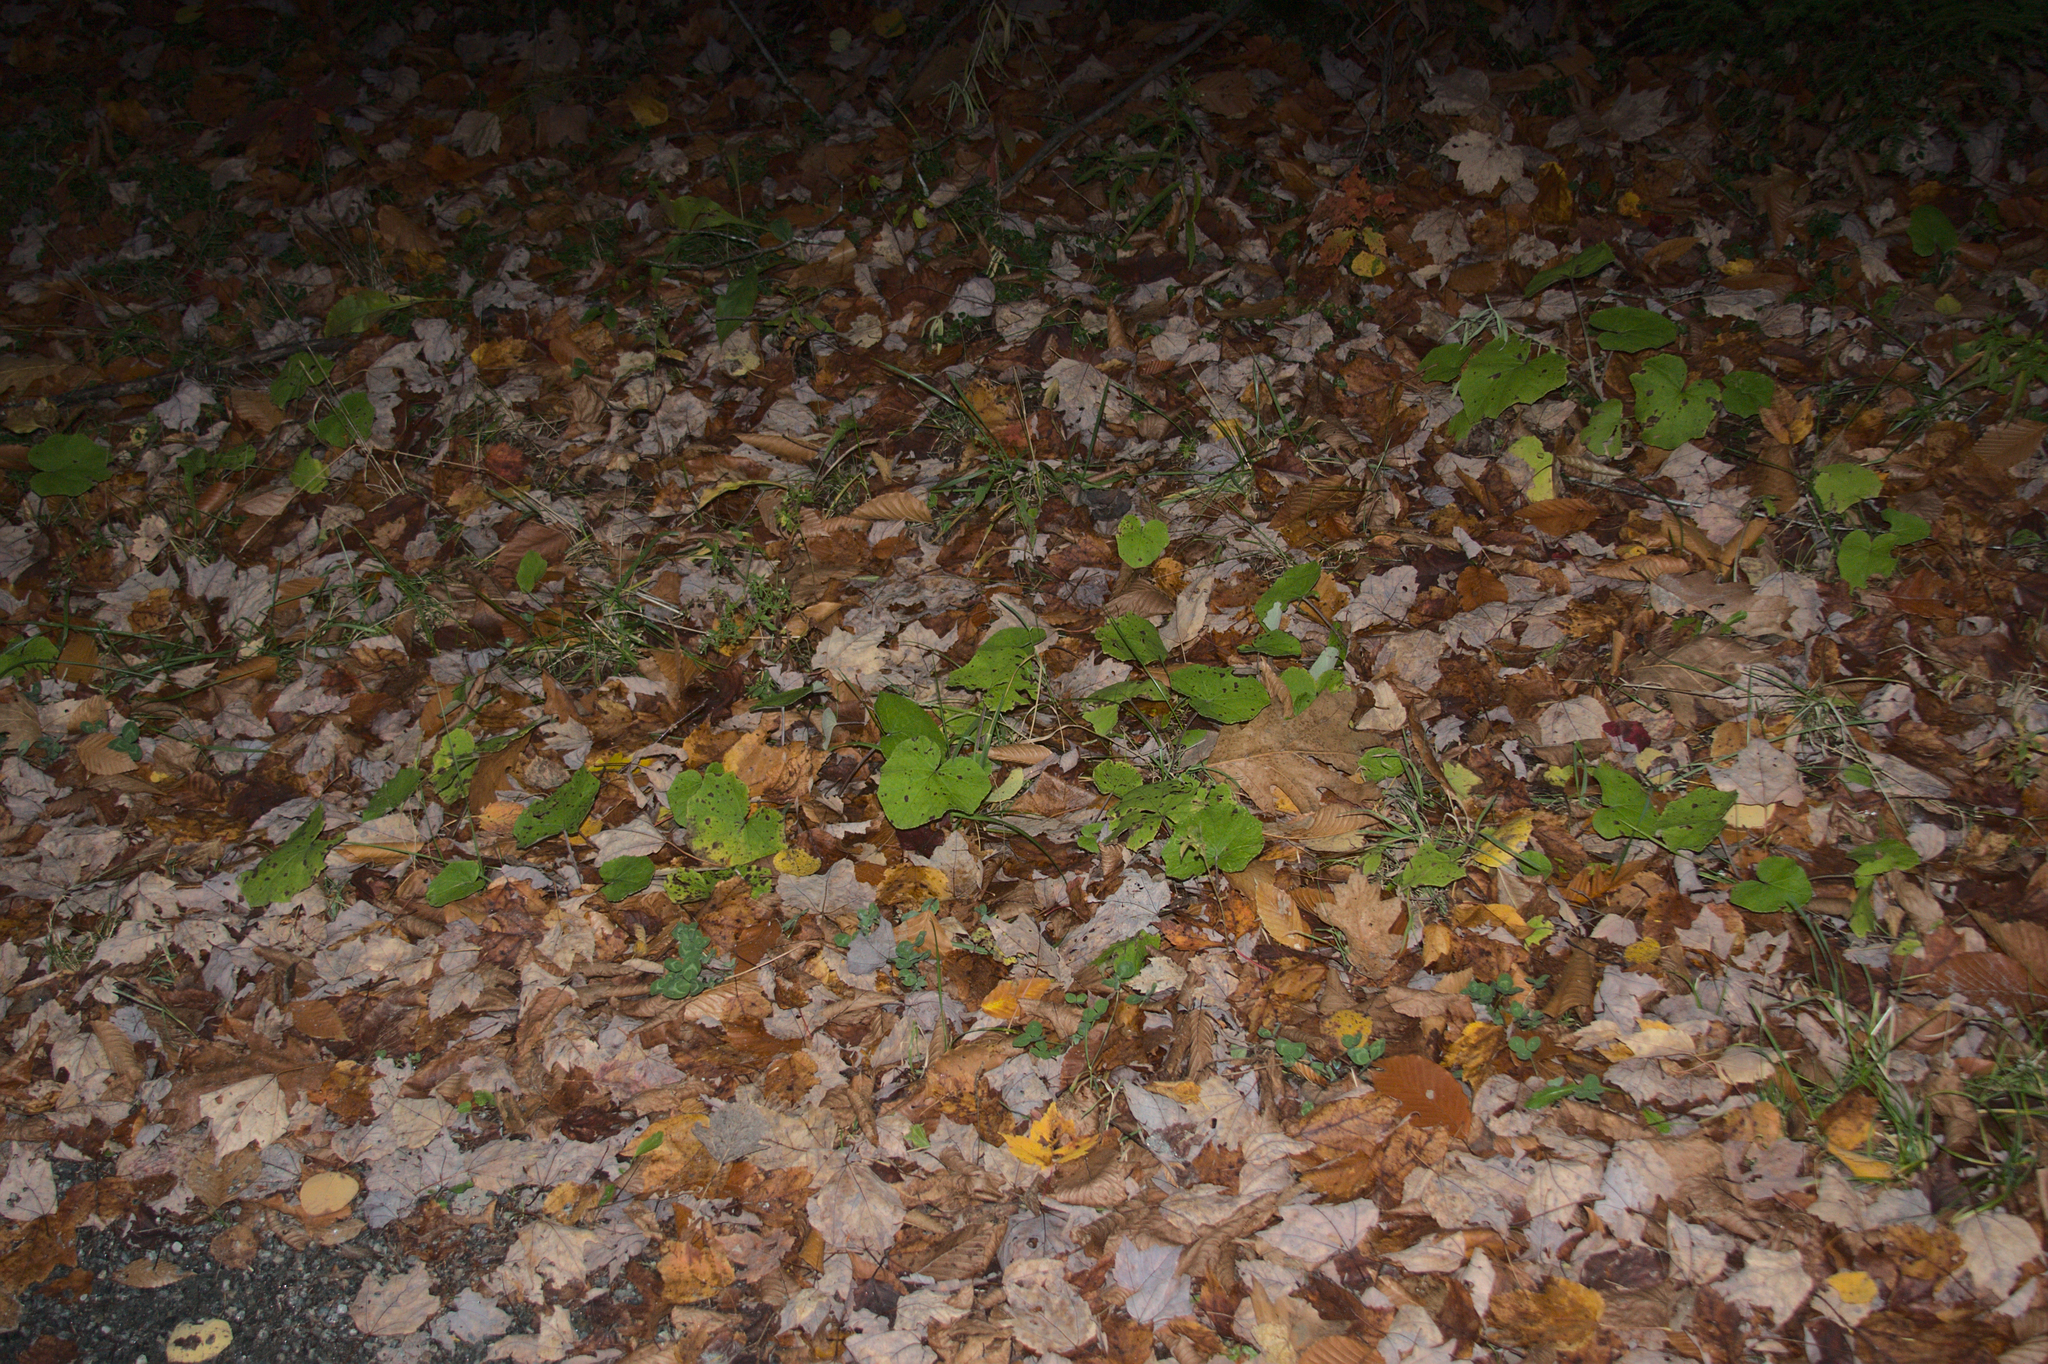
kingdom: Plantae
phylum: Tracheophyta
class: Magnoliopsida
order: Asterales
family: Asteraceae
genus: Tussilago
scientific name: Tussilago farfara
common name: Coltsfoot
